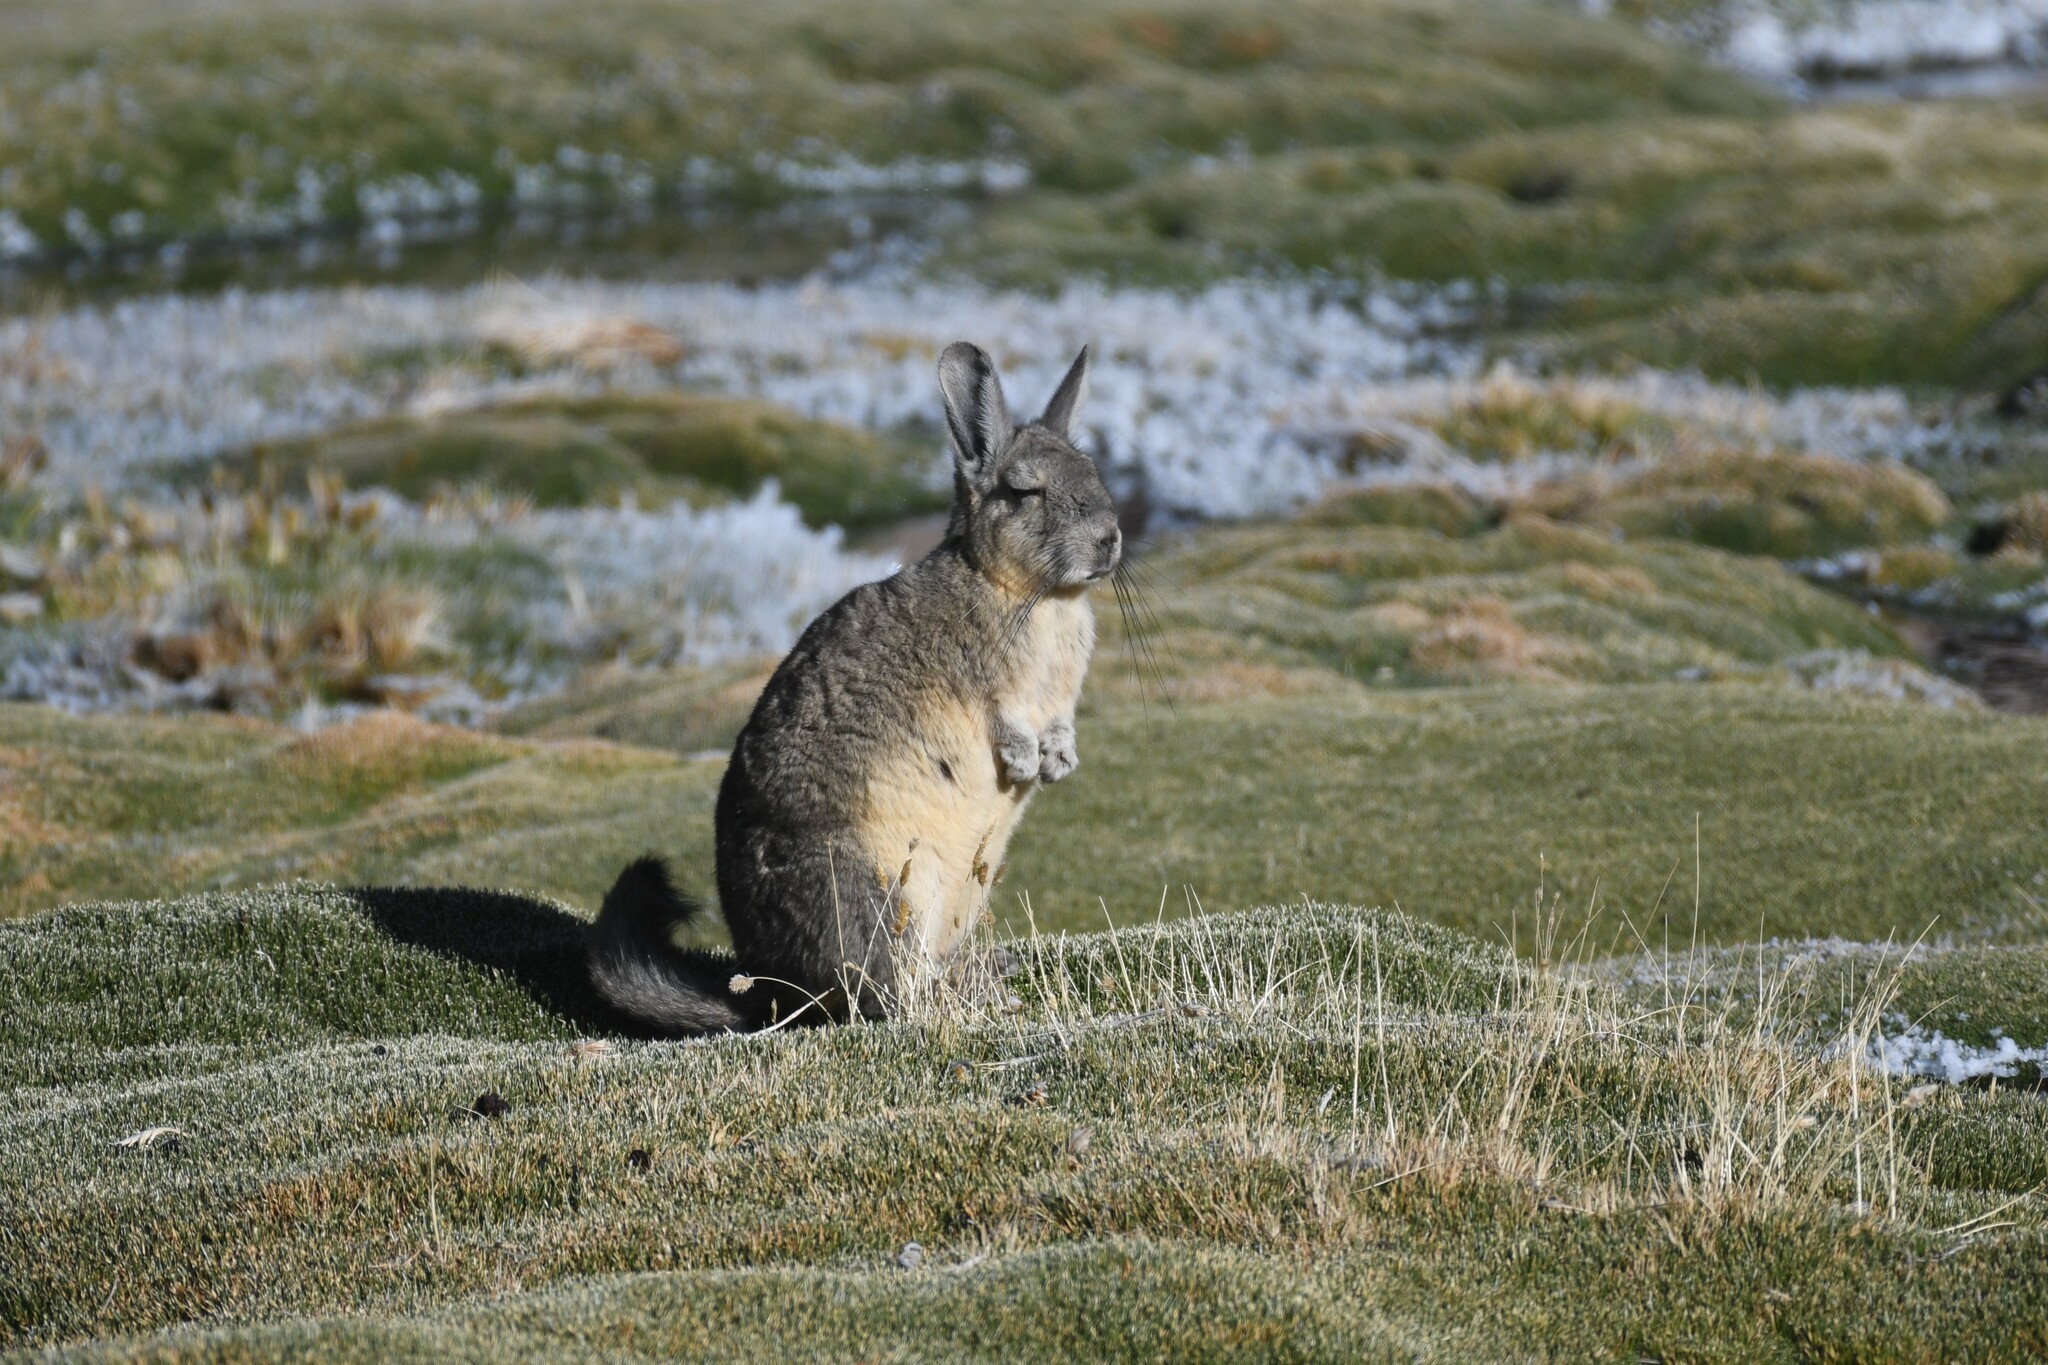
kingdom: Animalia
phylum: Chordata
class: Mammalia
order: Rodentia
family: Chinchillidae
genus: Lagidium
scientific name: Lagidium viscacia
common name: Southern viscacha
